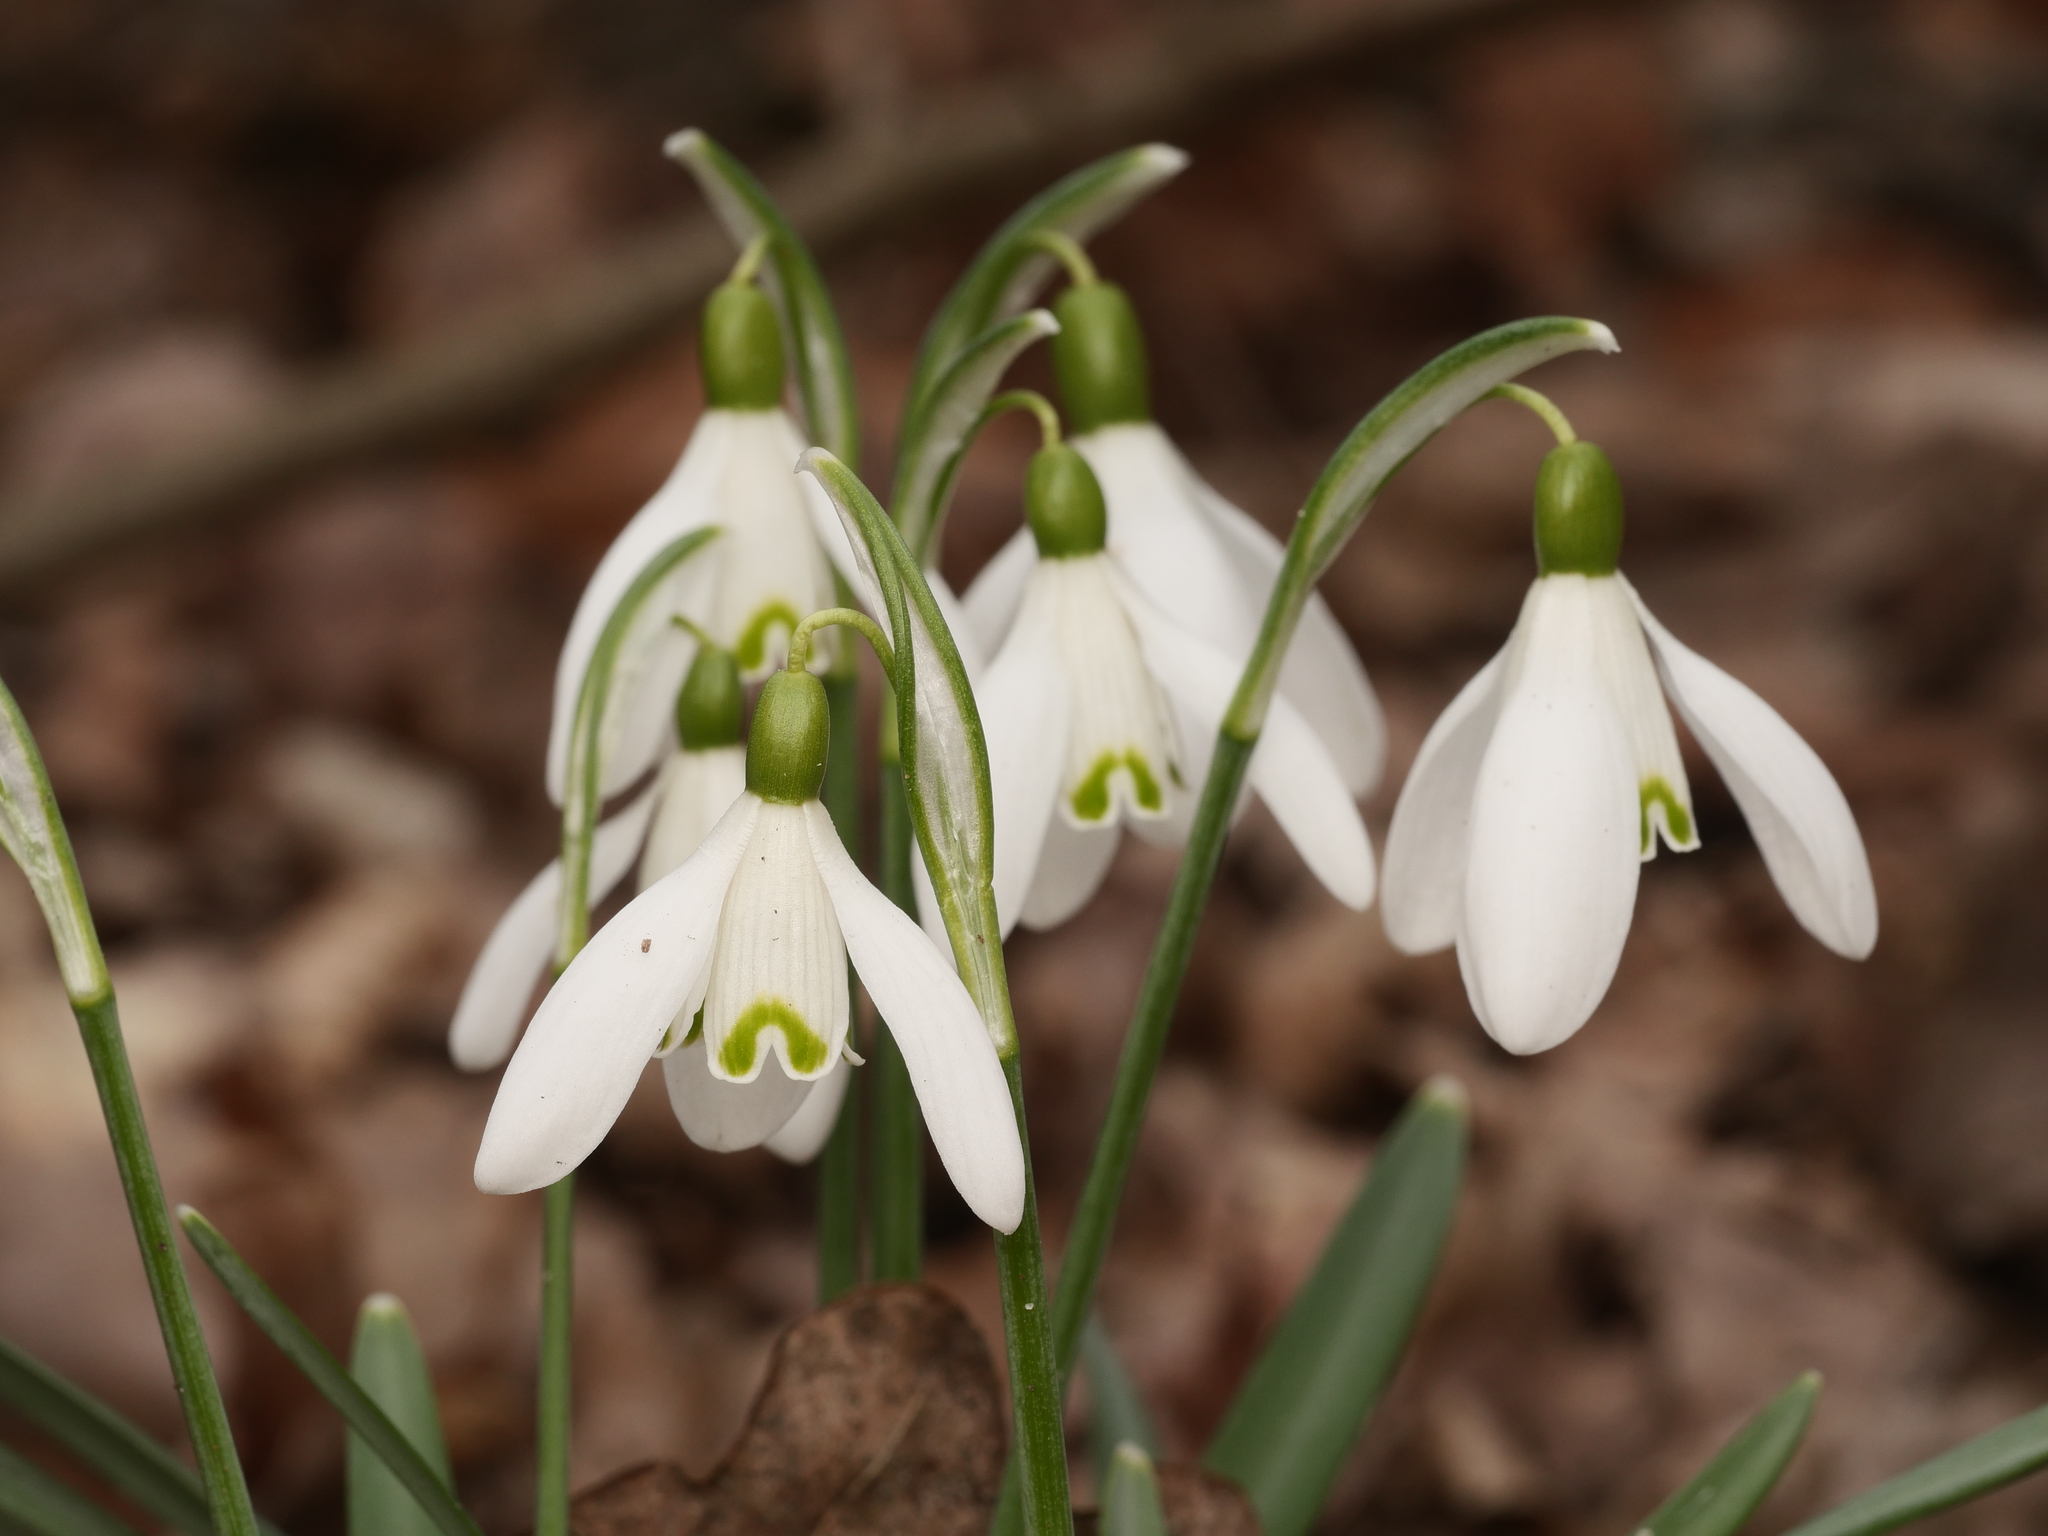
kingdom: Plantae
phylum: Tracheophyta
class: Liliopsida
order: Asparagales
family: Amaryllidaceae
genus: Galanthus
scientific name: Galanthus nivalis
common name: Snowdrop
